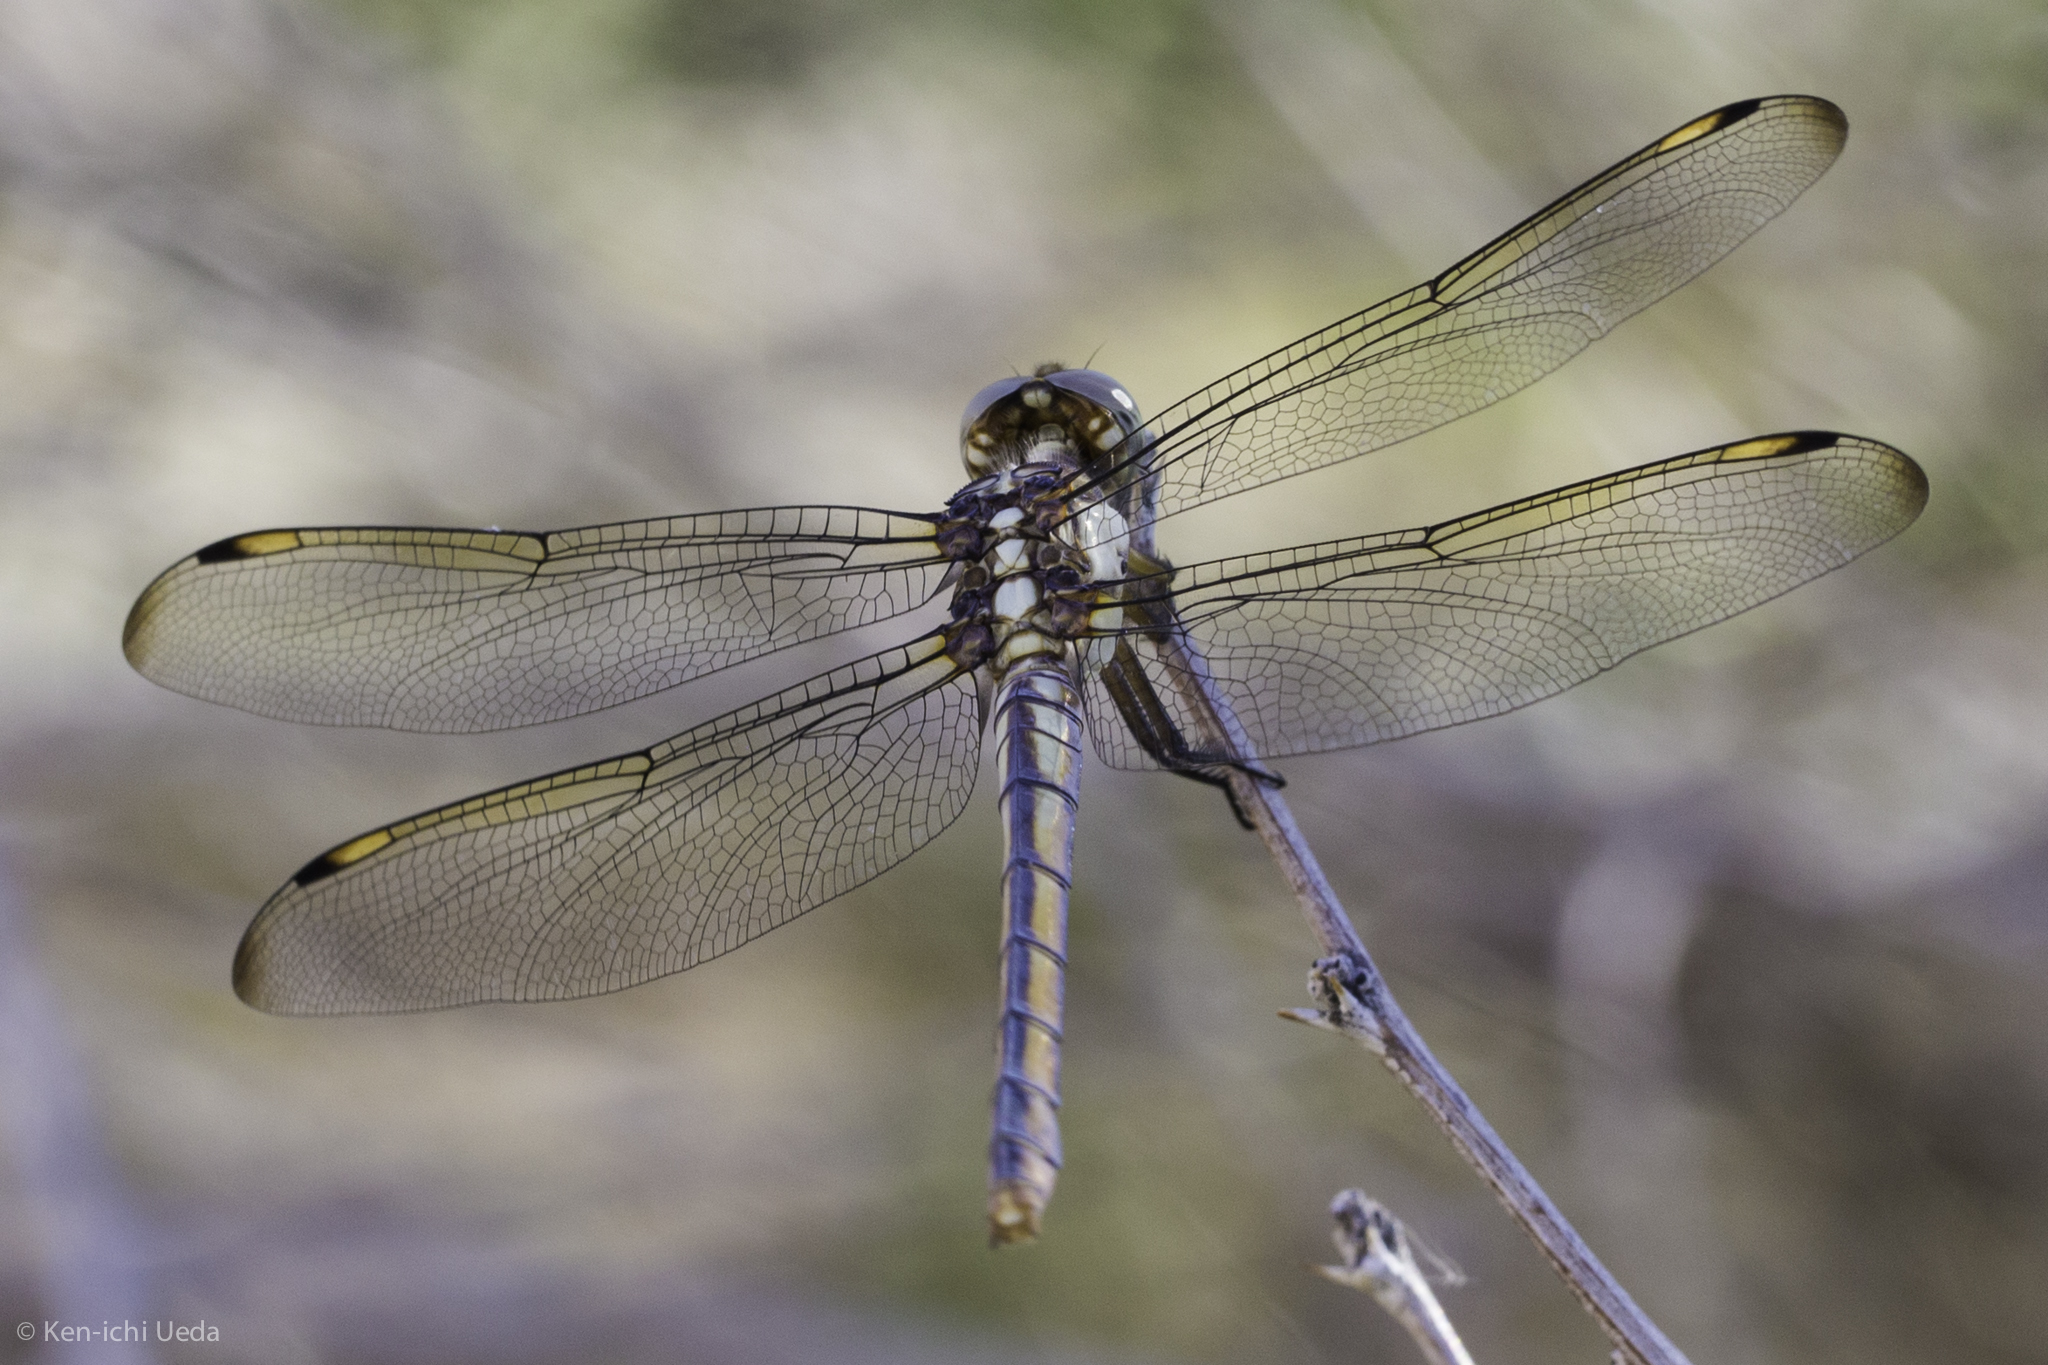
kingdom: Animalia
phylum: Arthropoda
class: Insecta
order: Odonata
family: Libellulidae
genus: Libellula
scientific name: Libellula comanche
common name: Comanche skimmer
